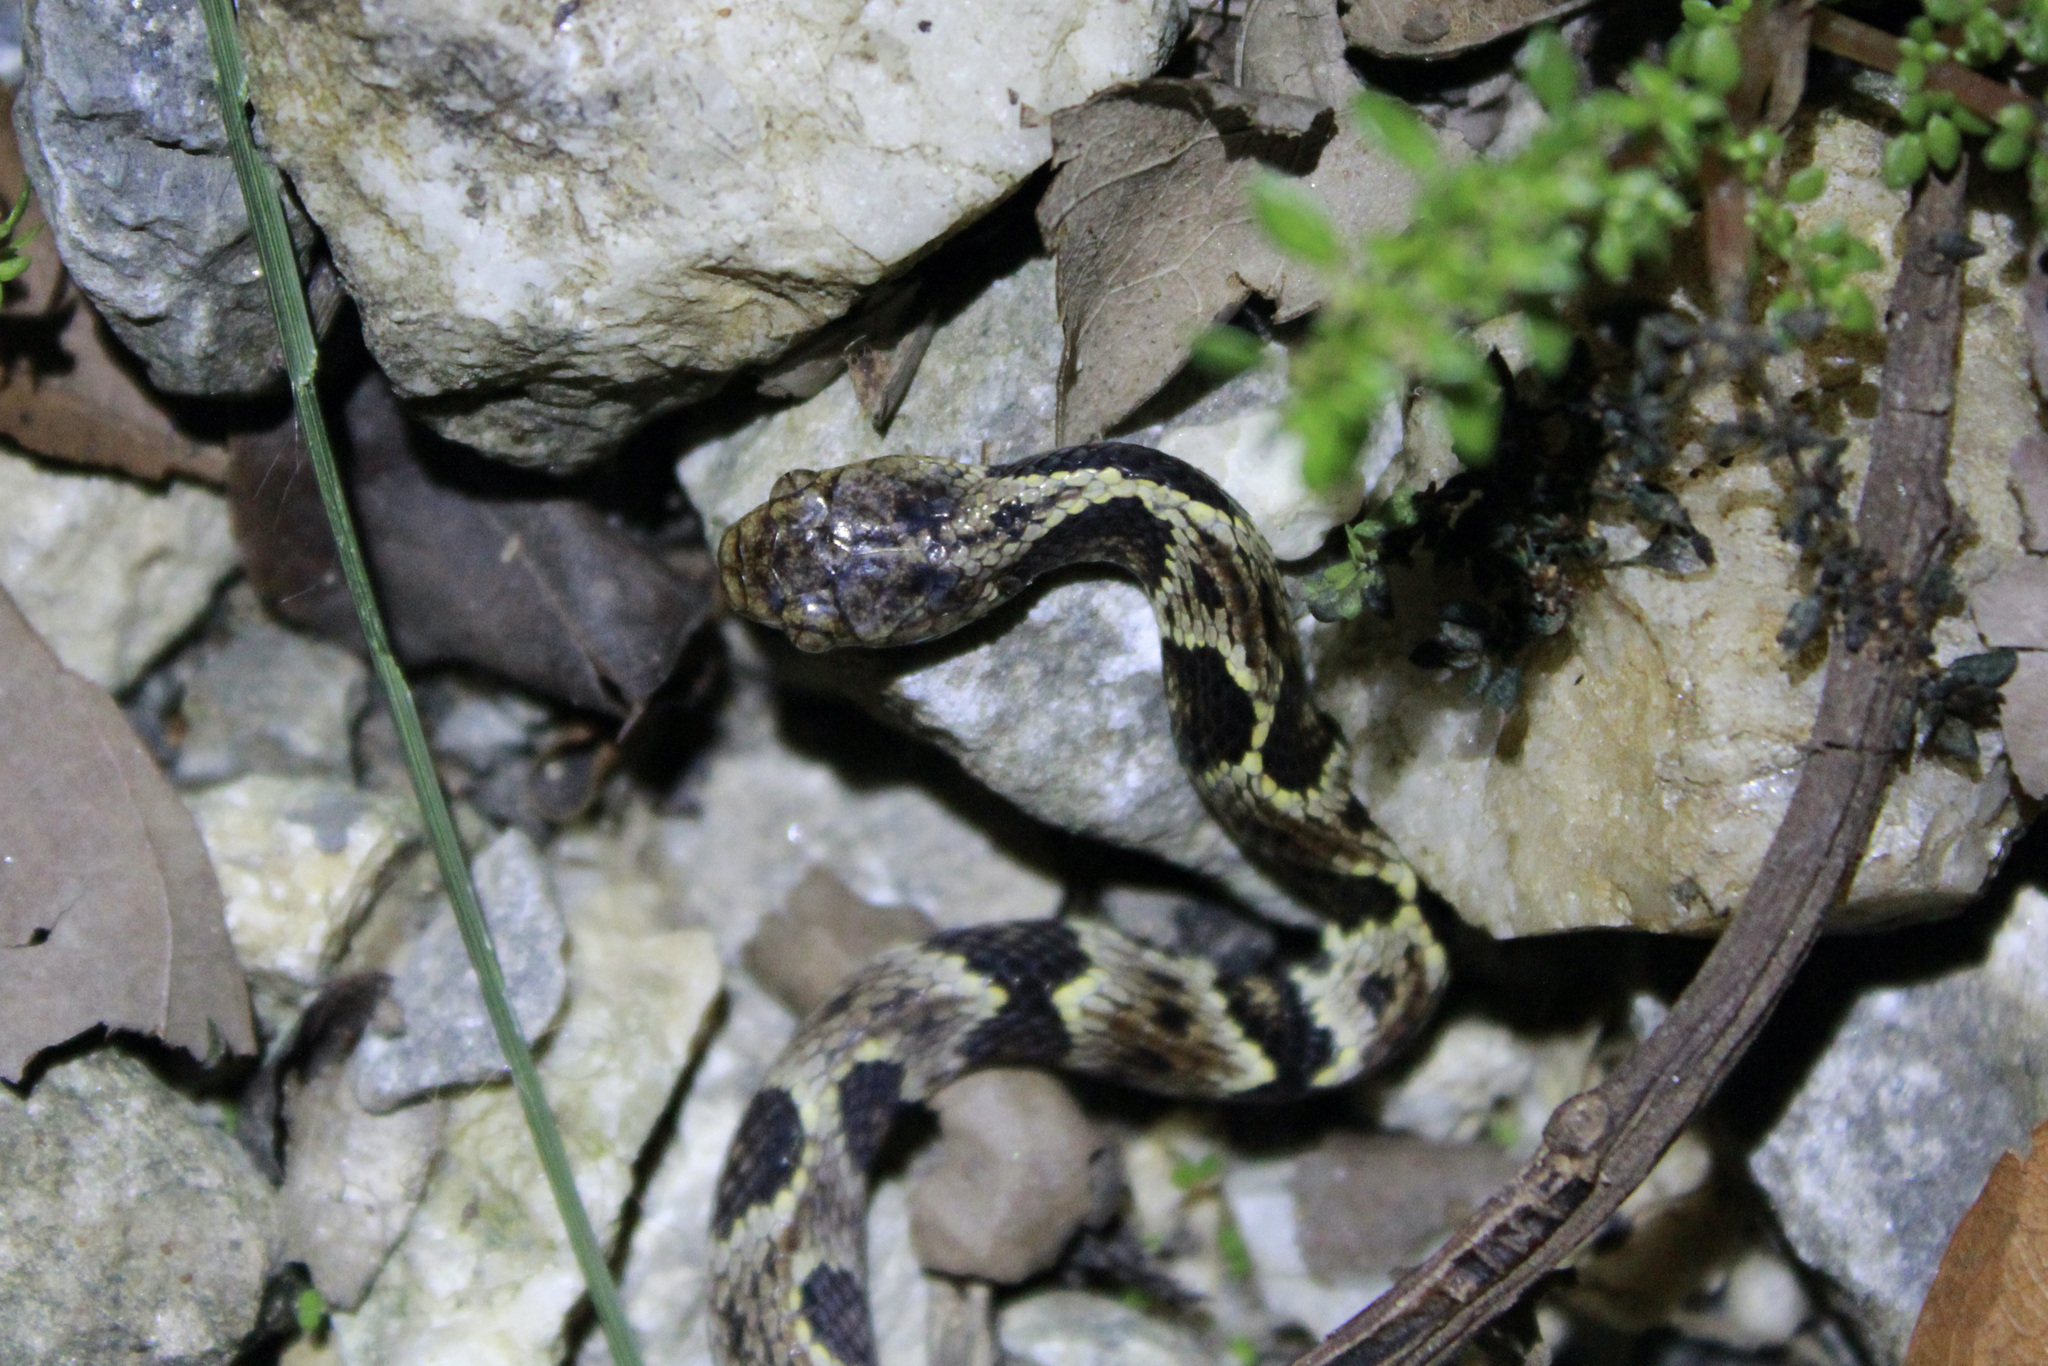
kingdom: Animalia
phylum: Chordata
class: Squamata
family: Colubridae
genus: Dipsas
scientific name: Dipsas trinitatis
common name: Trinidad snail-eater
